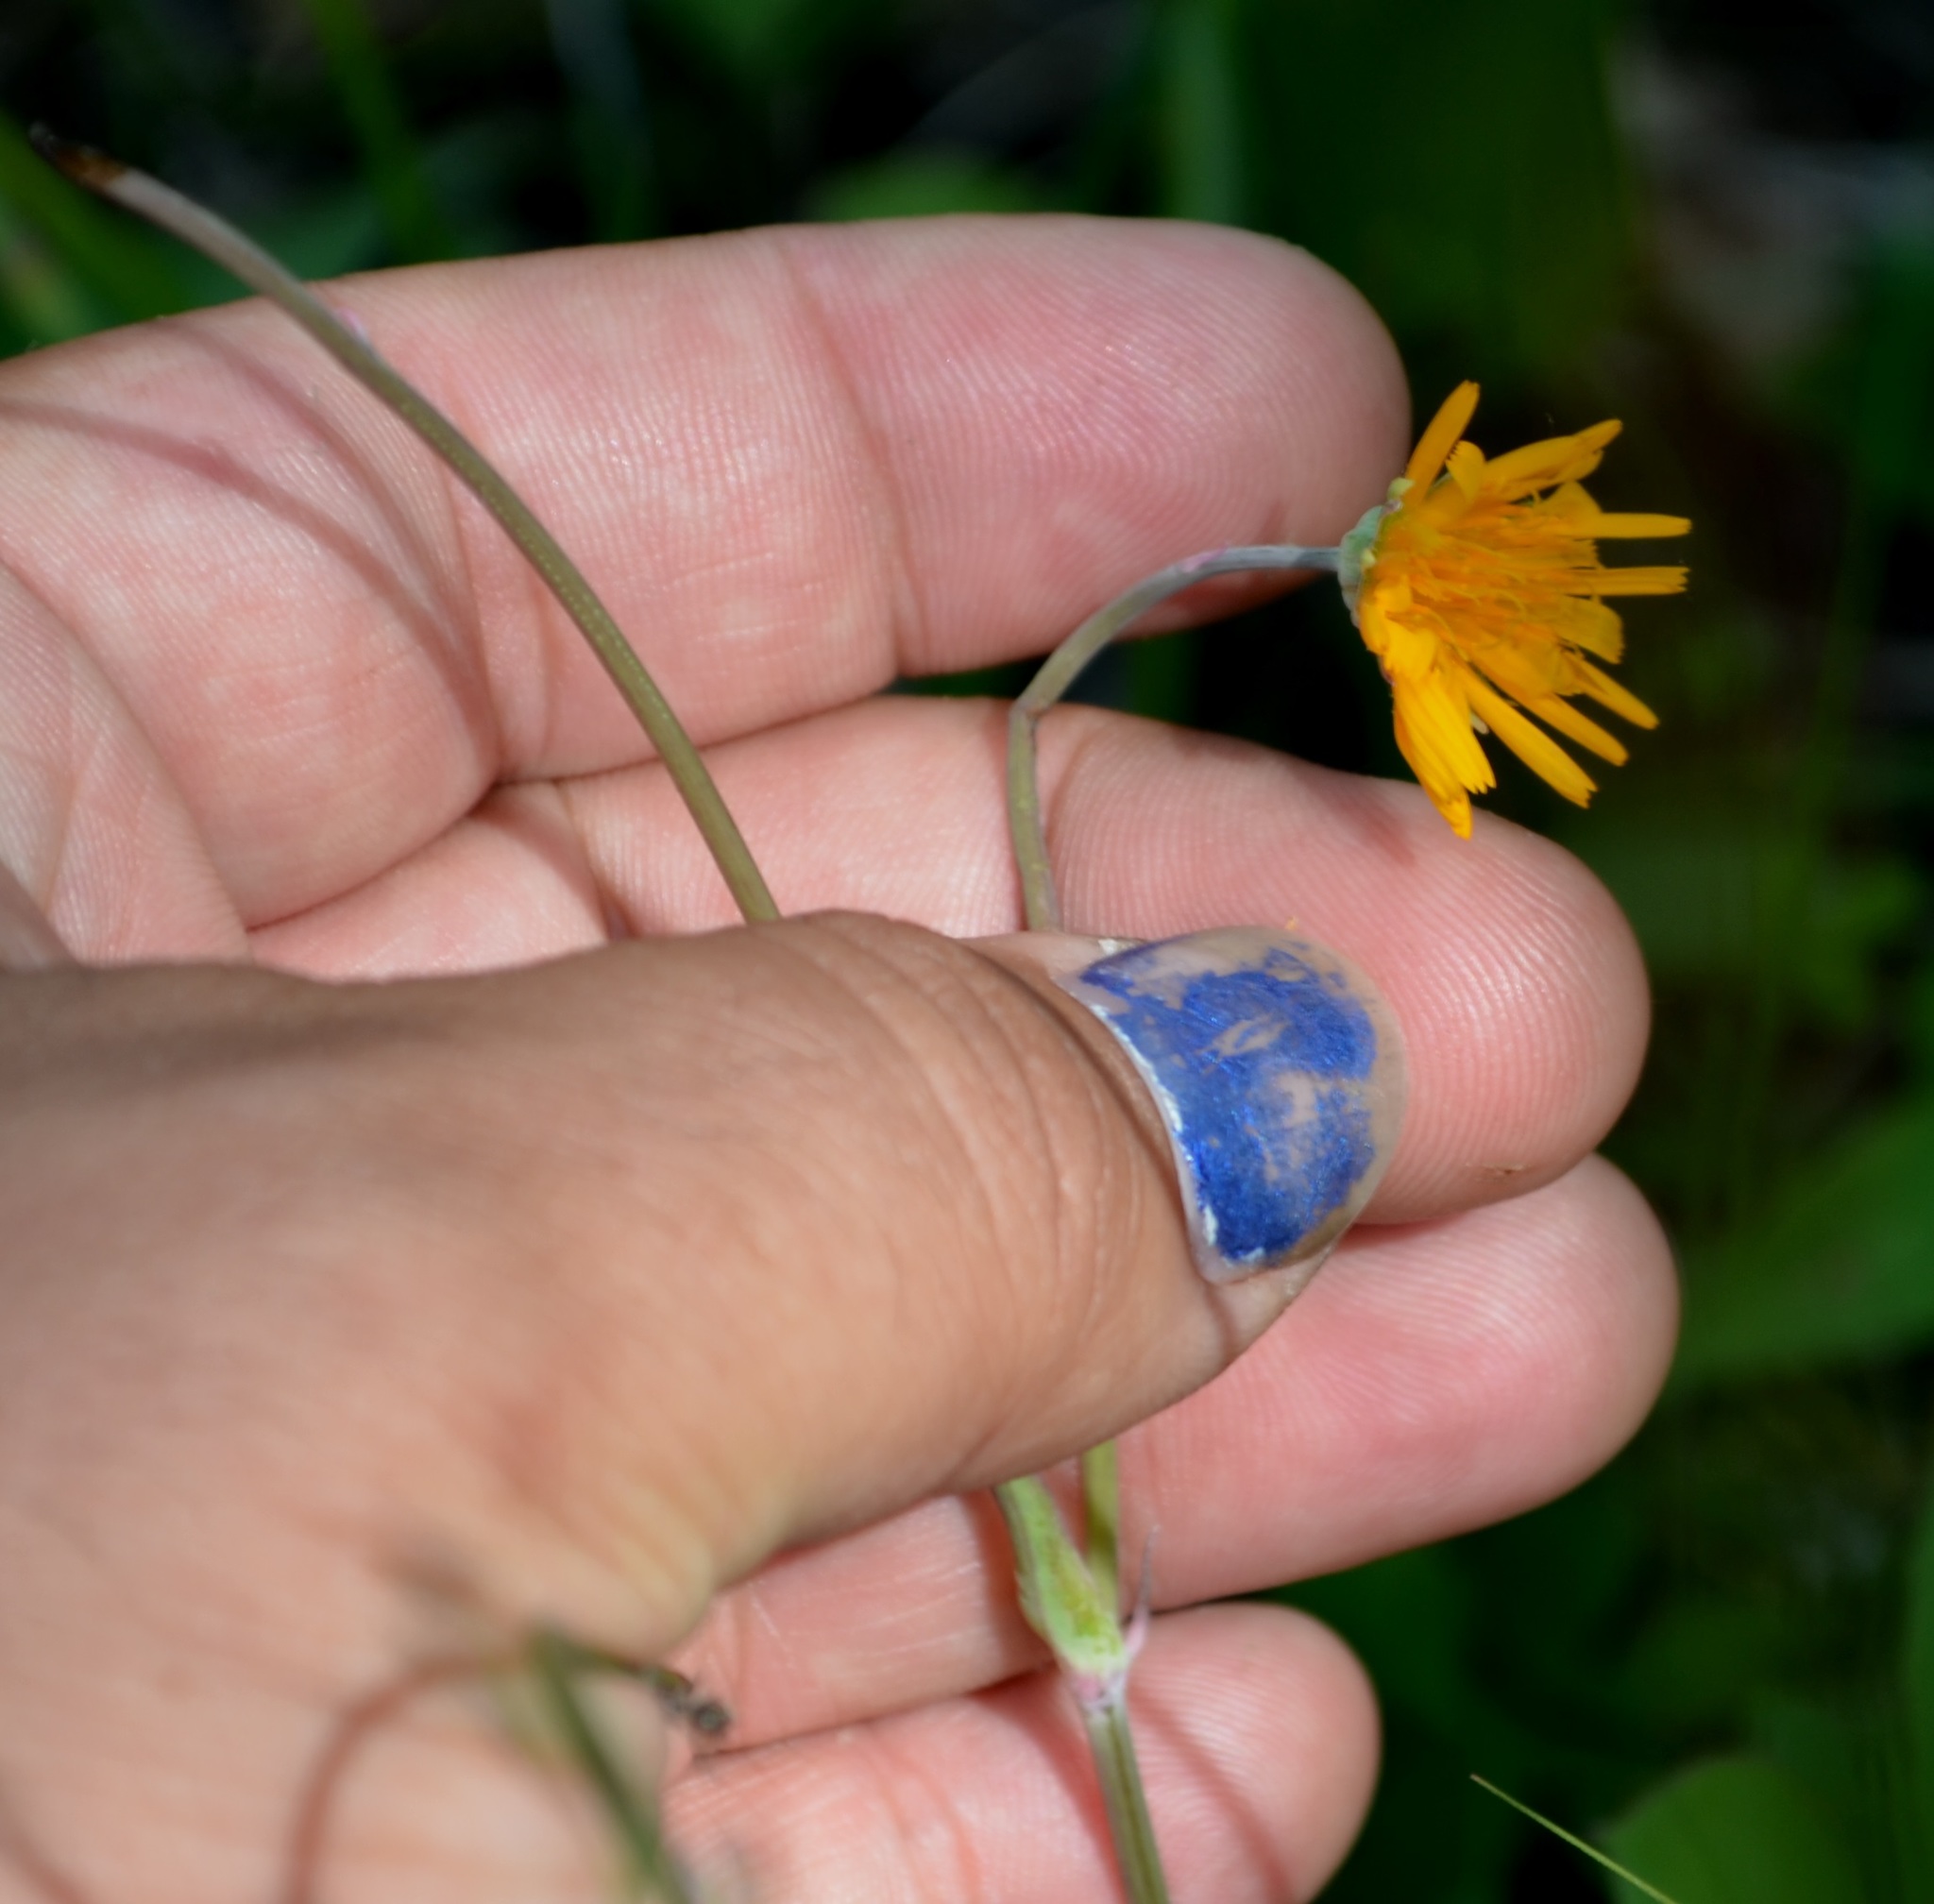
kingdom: Plantae
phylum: Tracheophyta
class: Magnoliopsida
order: Asterales
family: Asteraceae
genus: Krigia
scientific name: Krigia biflora
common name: Orange dwarf-dandelion
